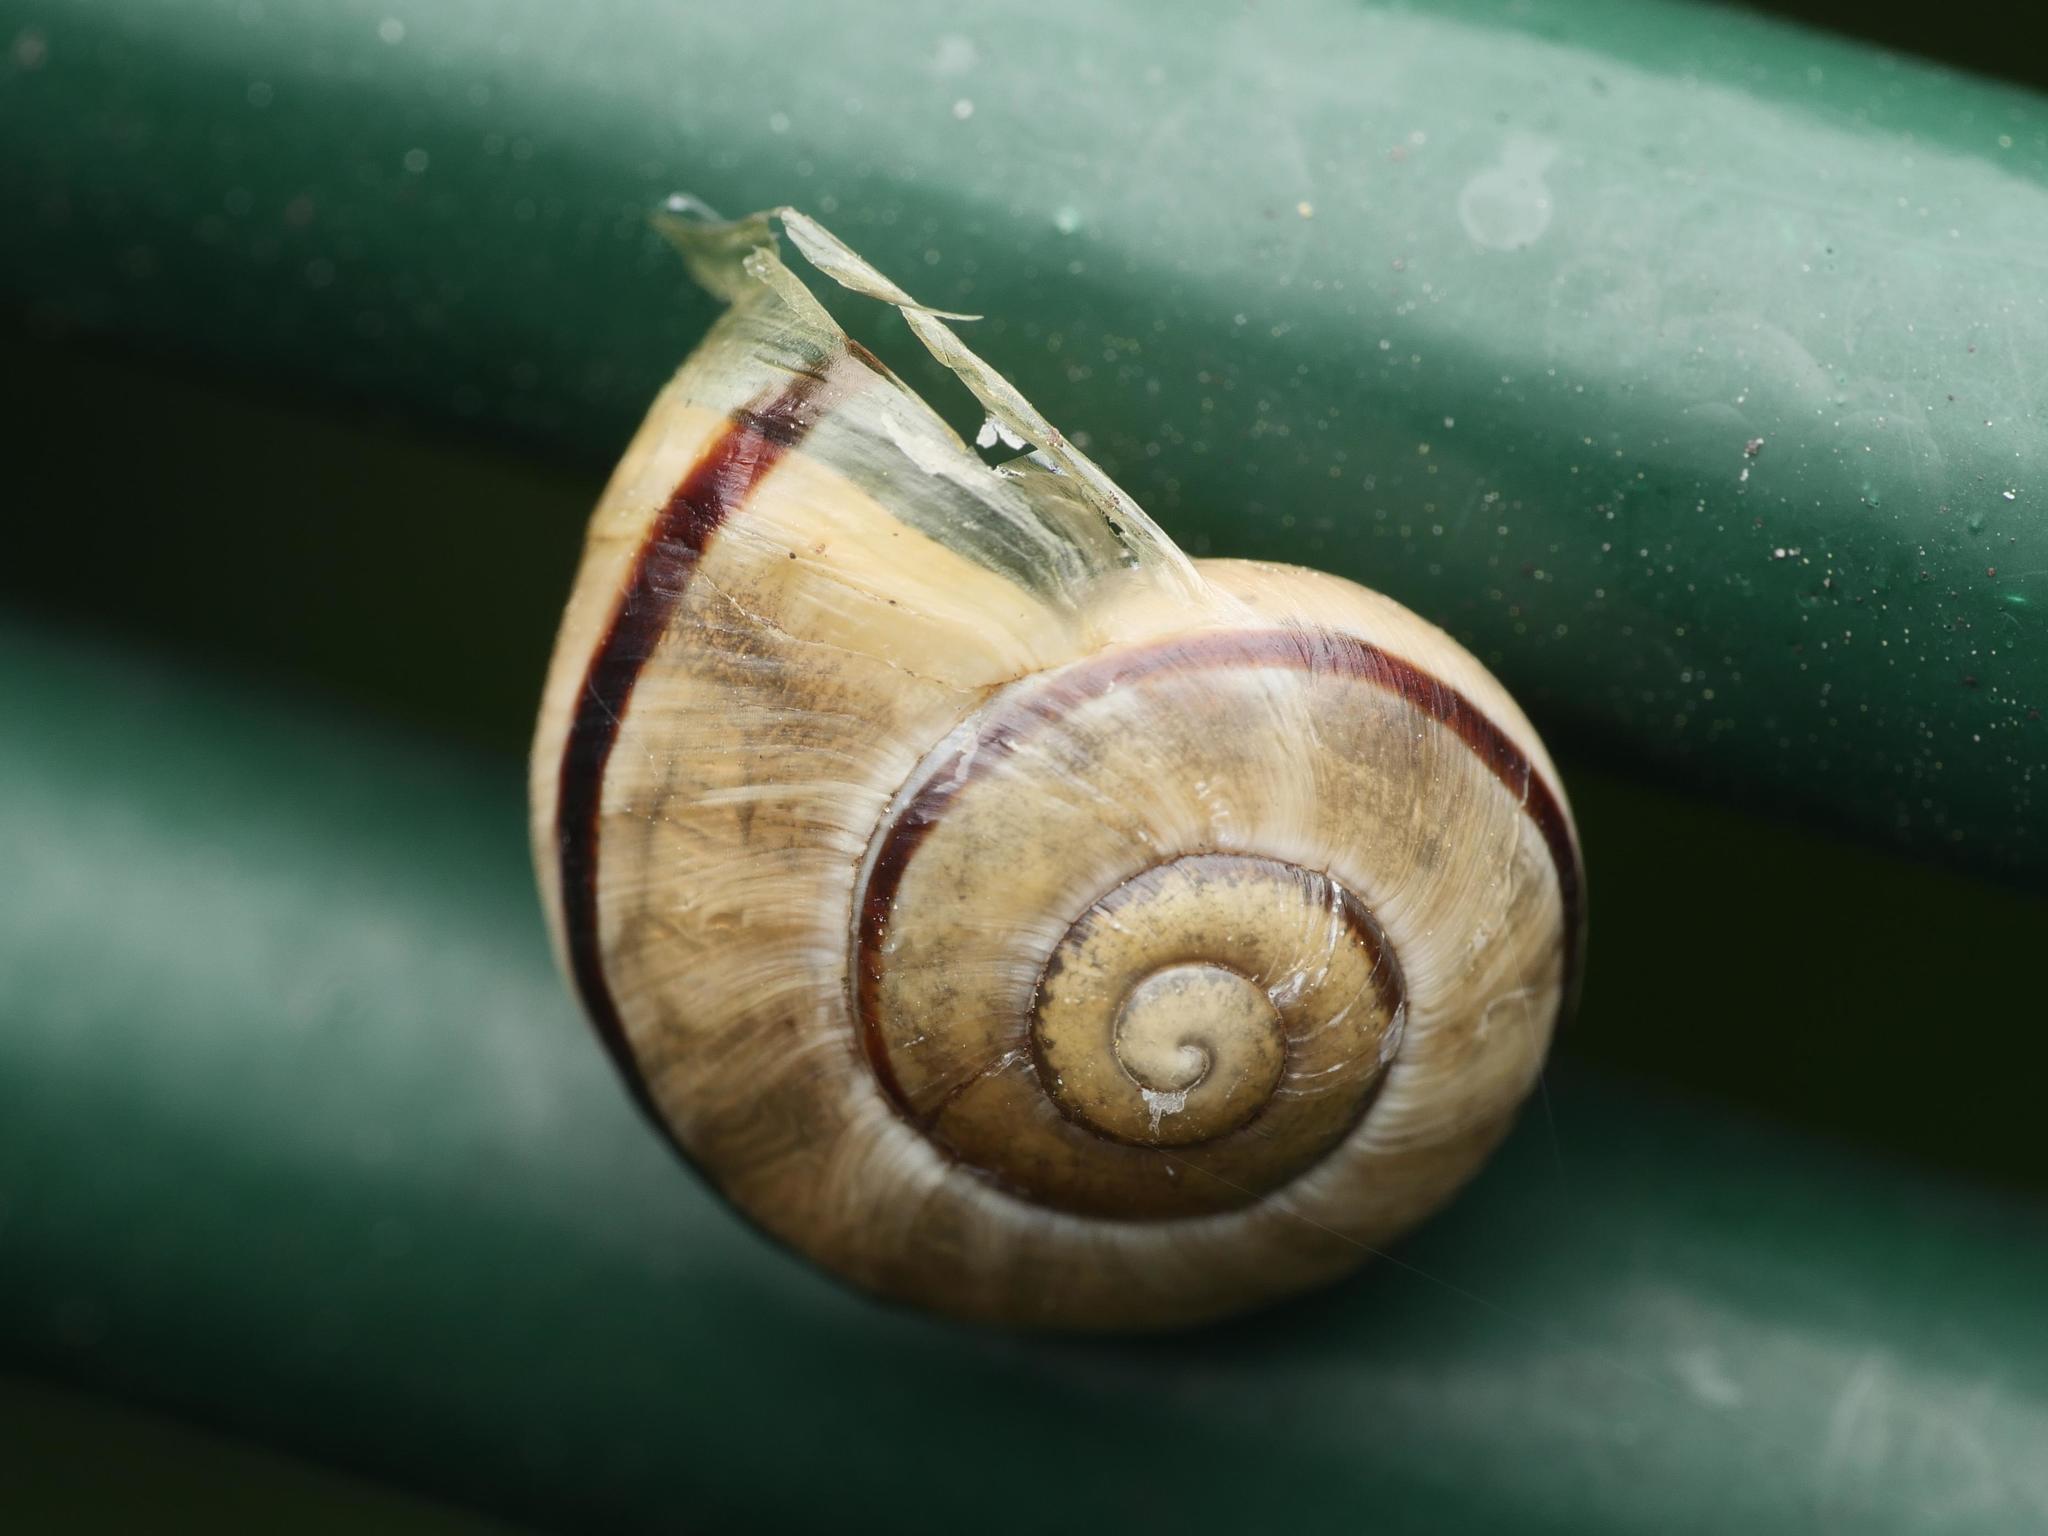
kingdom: Animalia
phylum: Mollusca
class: Gastropoda
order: Stylommatophora
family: Helicidae
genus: Cepaea
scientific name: Cepaea nemoralis
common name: Grovesnail
